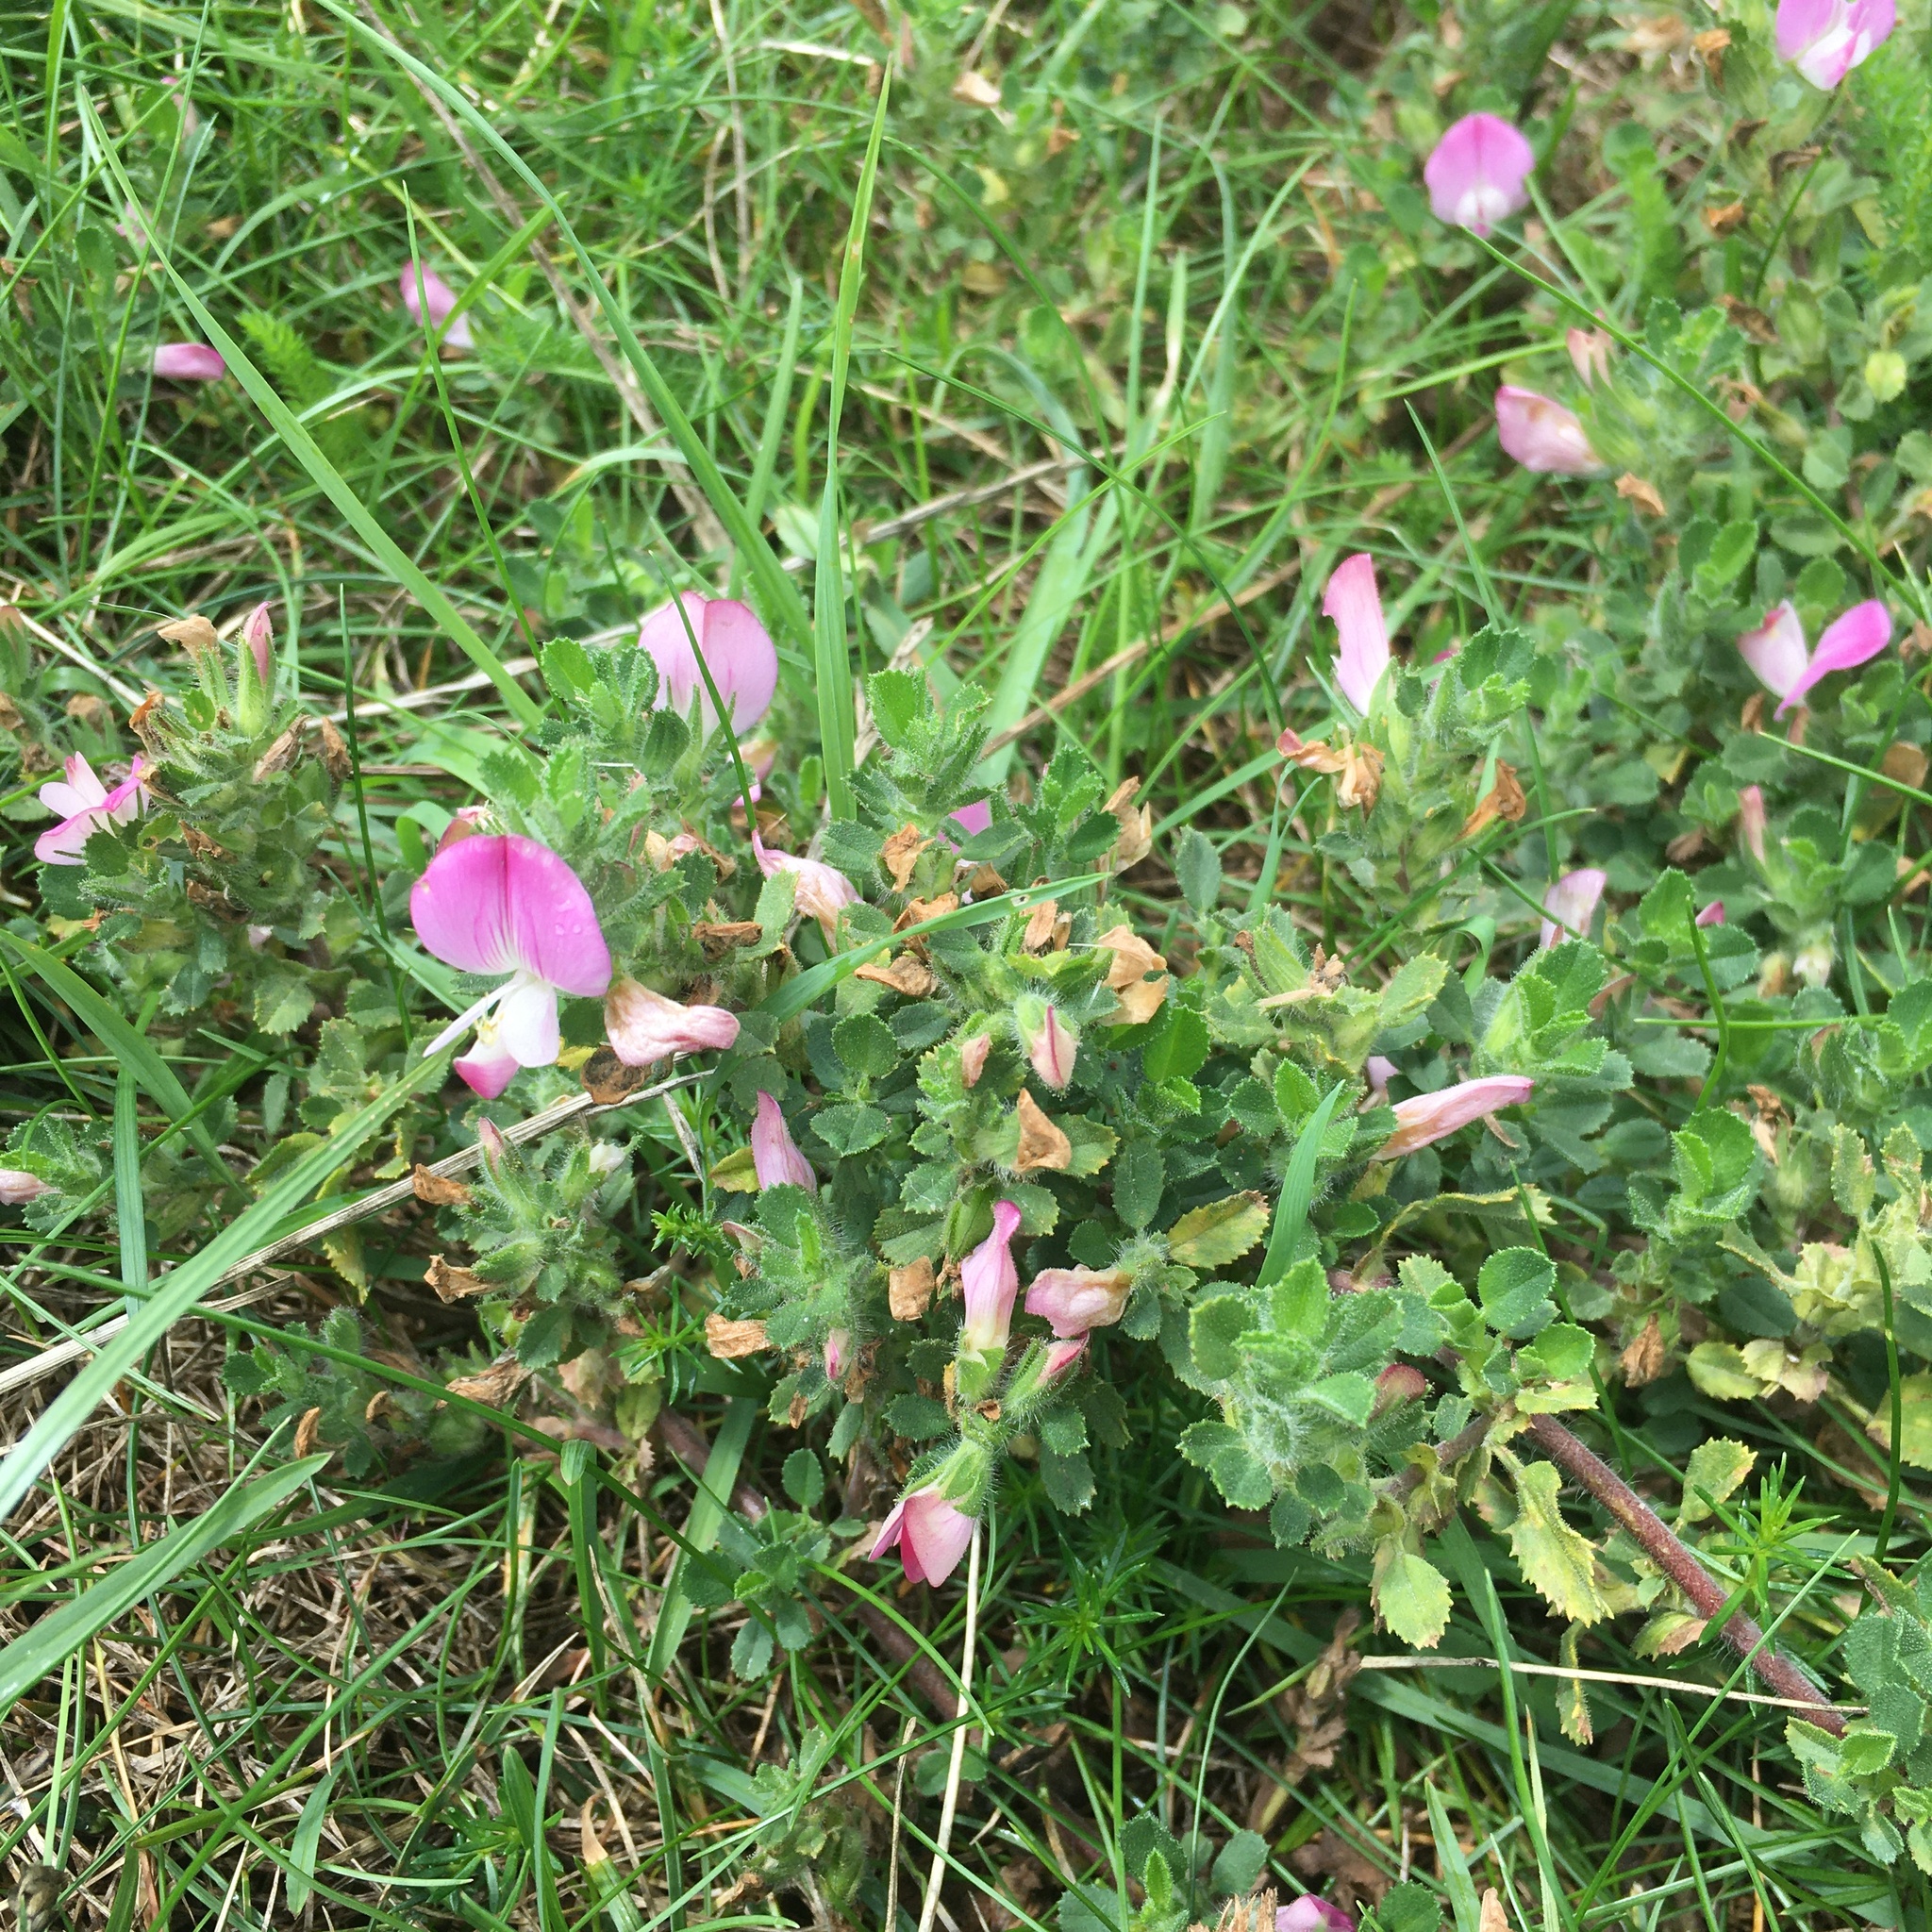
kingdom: Plantae
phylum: Tracheophyta
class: Magnoliopsida
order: Fabales
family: Fabaceae
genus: Ononis
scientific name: Ononis spinosa
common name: Spiny restharrow
